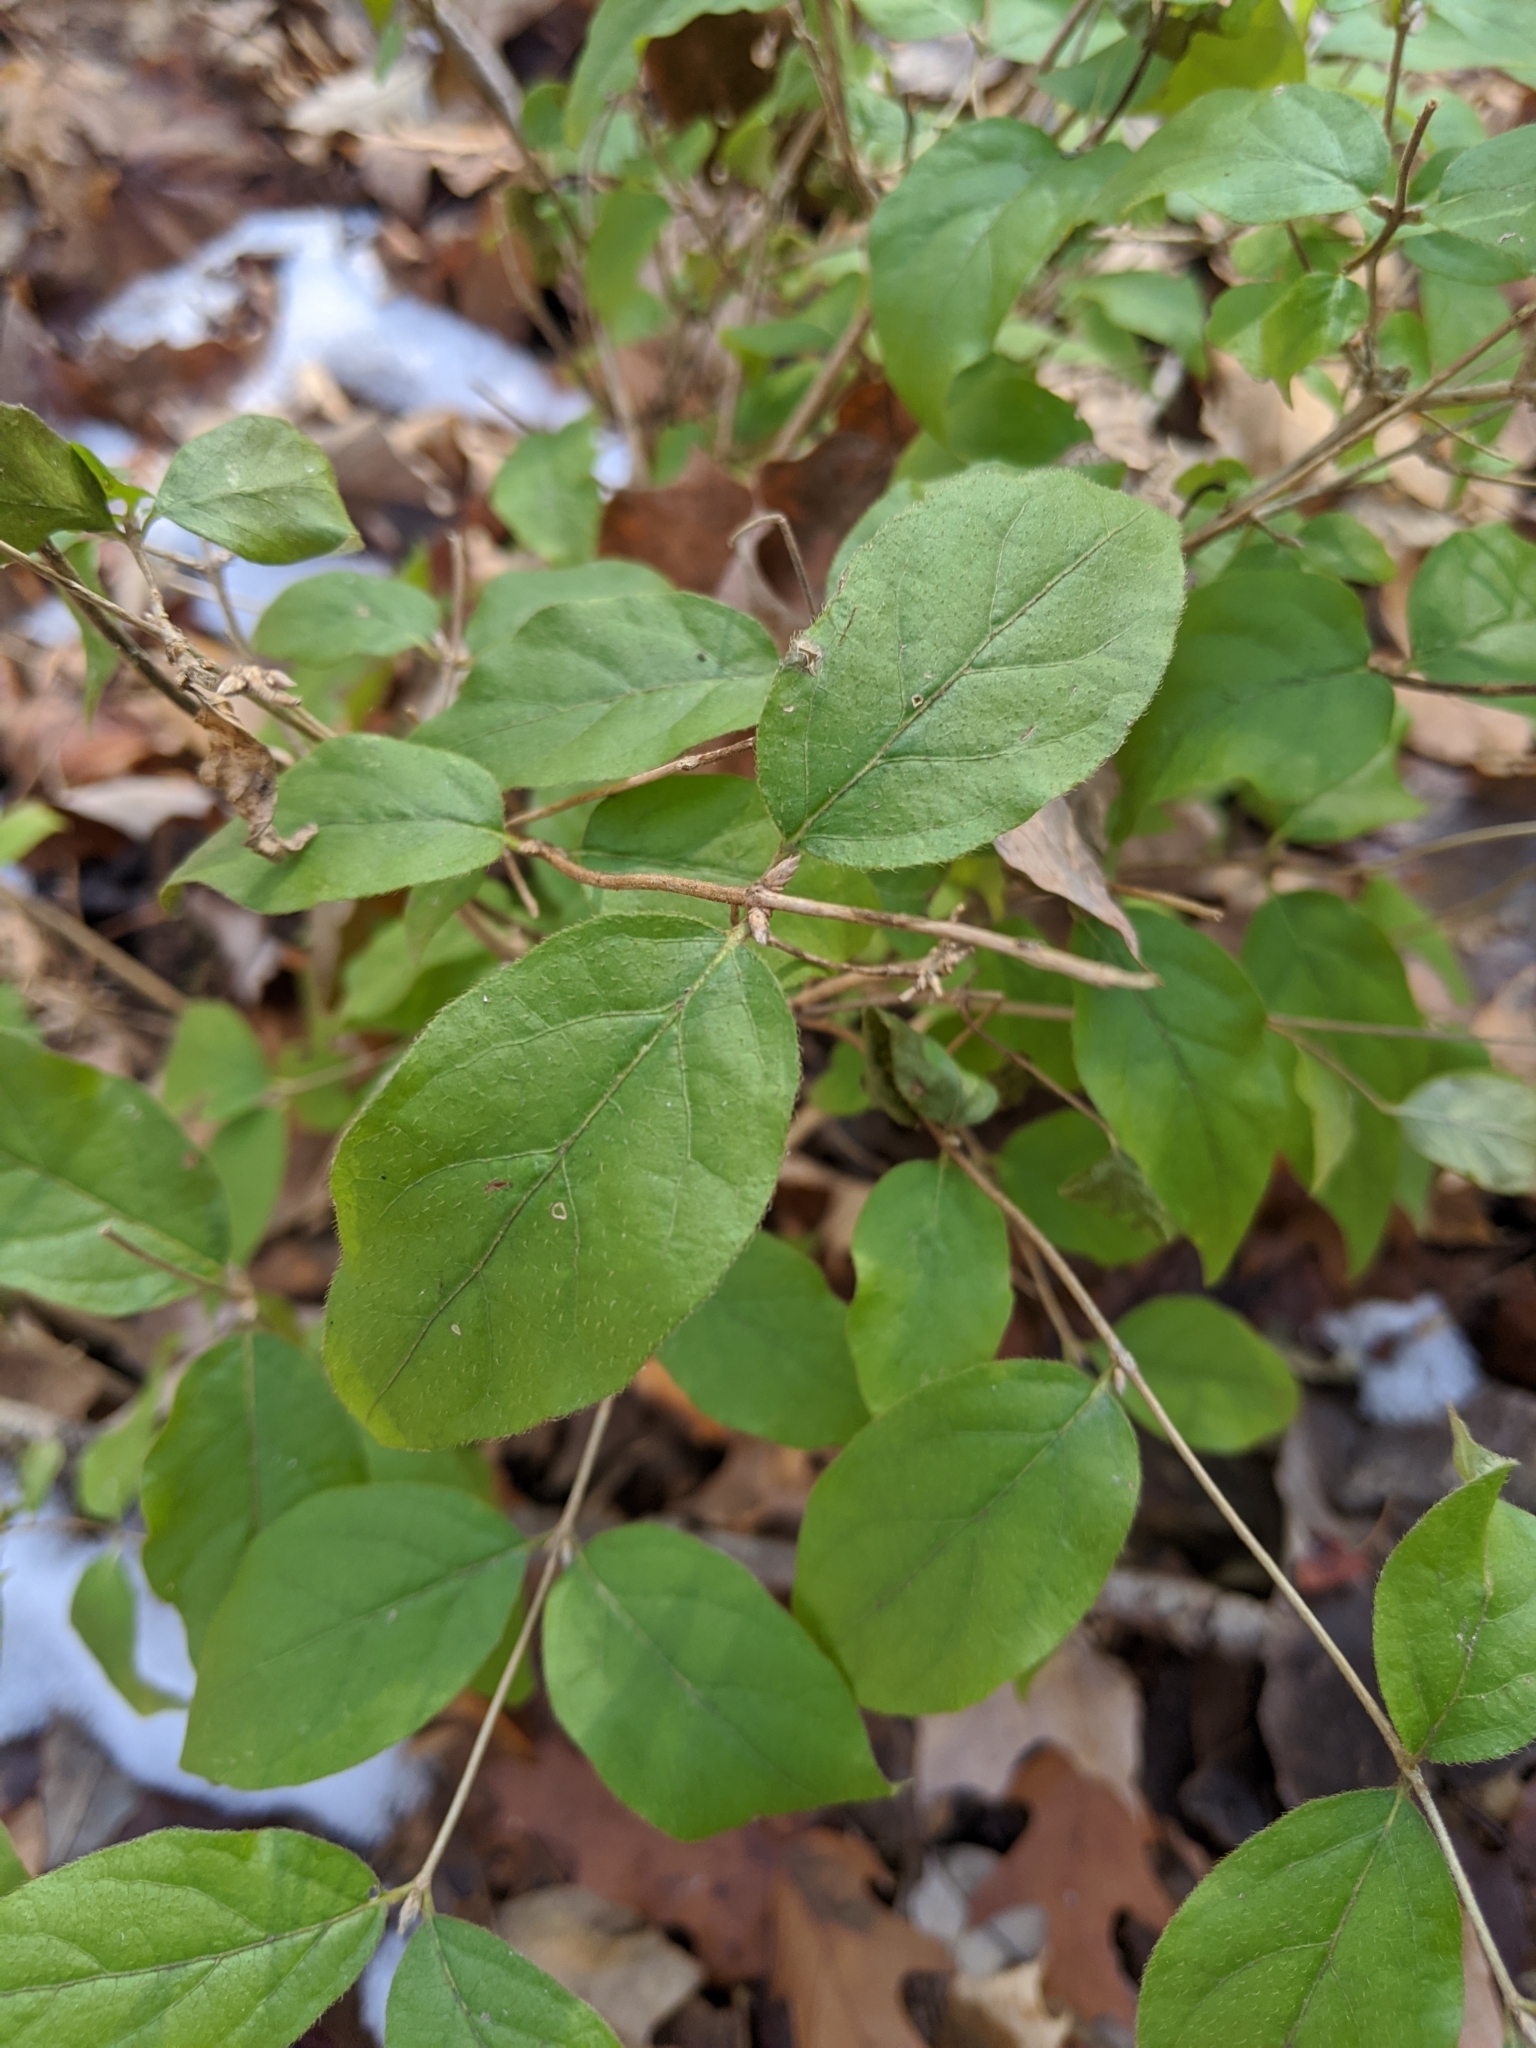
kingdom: Plantae
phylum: Tracheophyta
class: Magnoliopsida
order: Dipsacales
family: Caprifoliaceae
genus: Lonicera
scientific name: Lonicera maackii
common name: Amur honeysuckle
